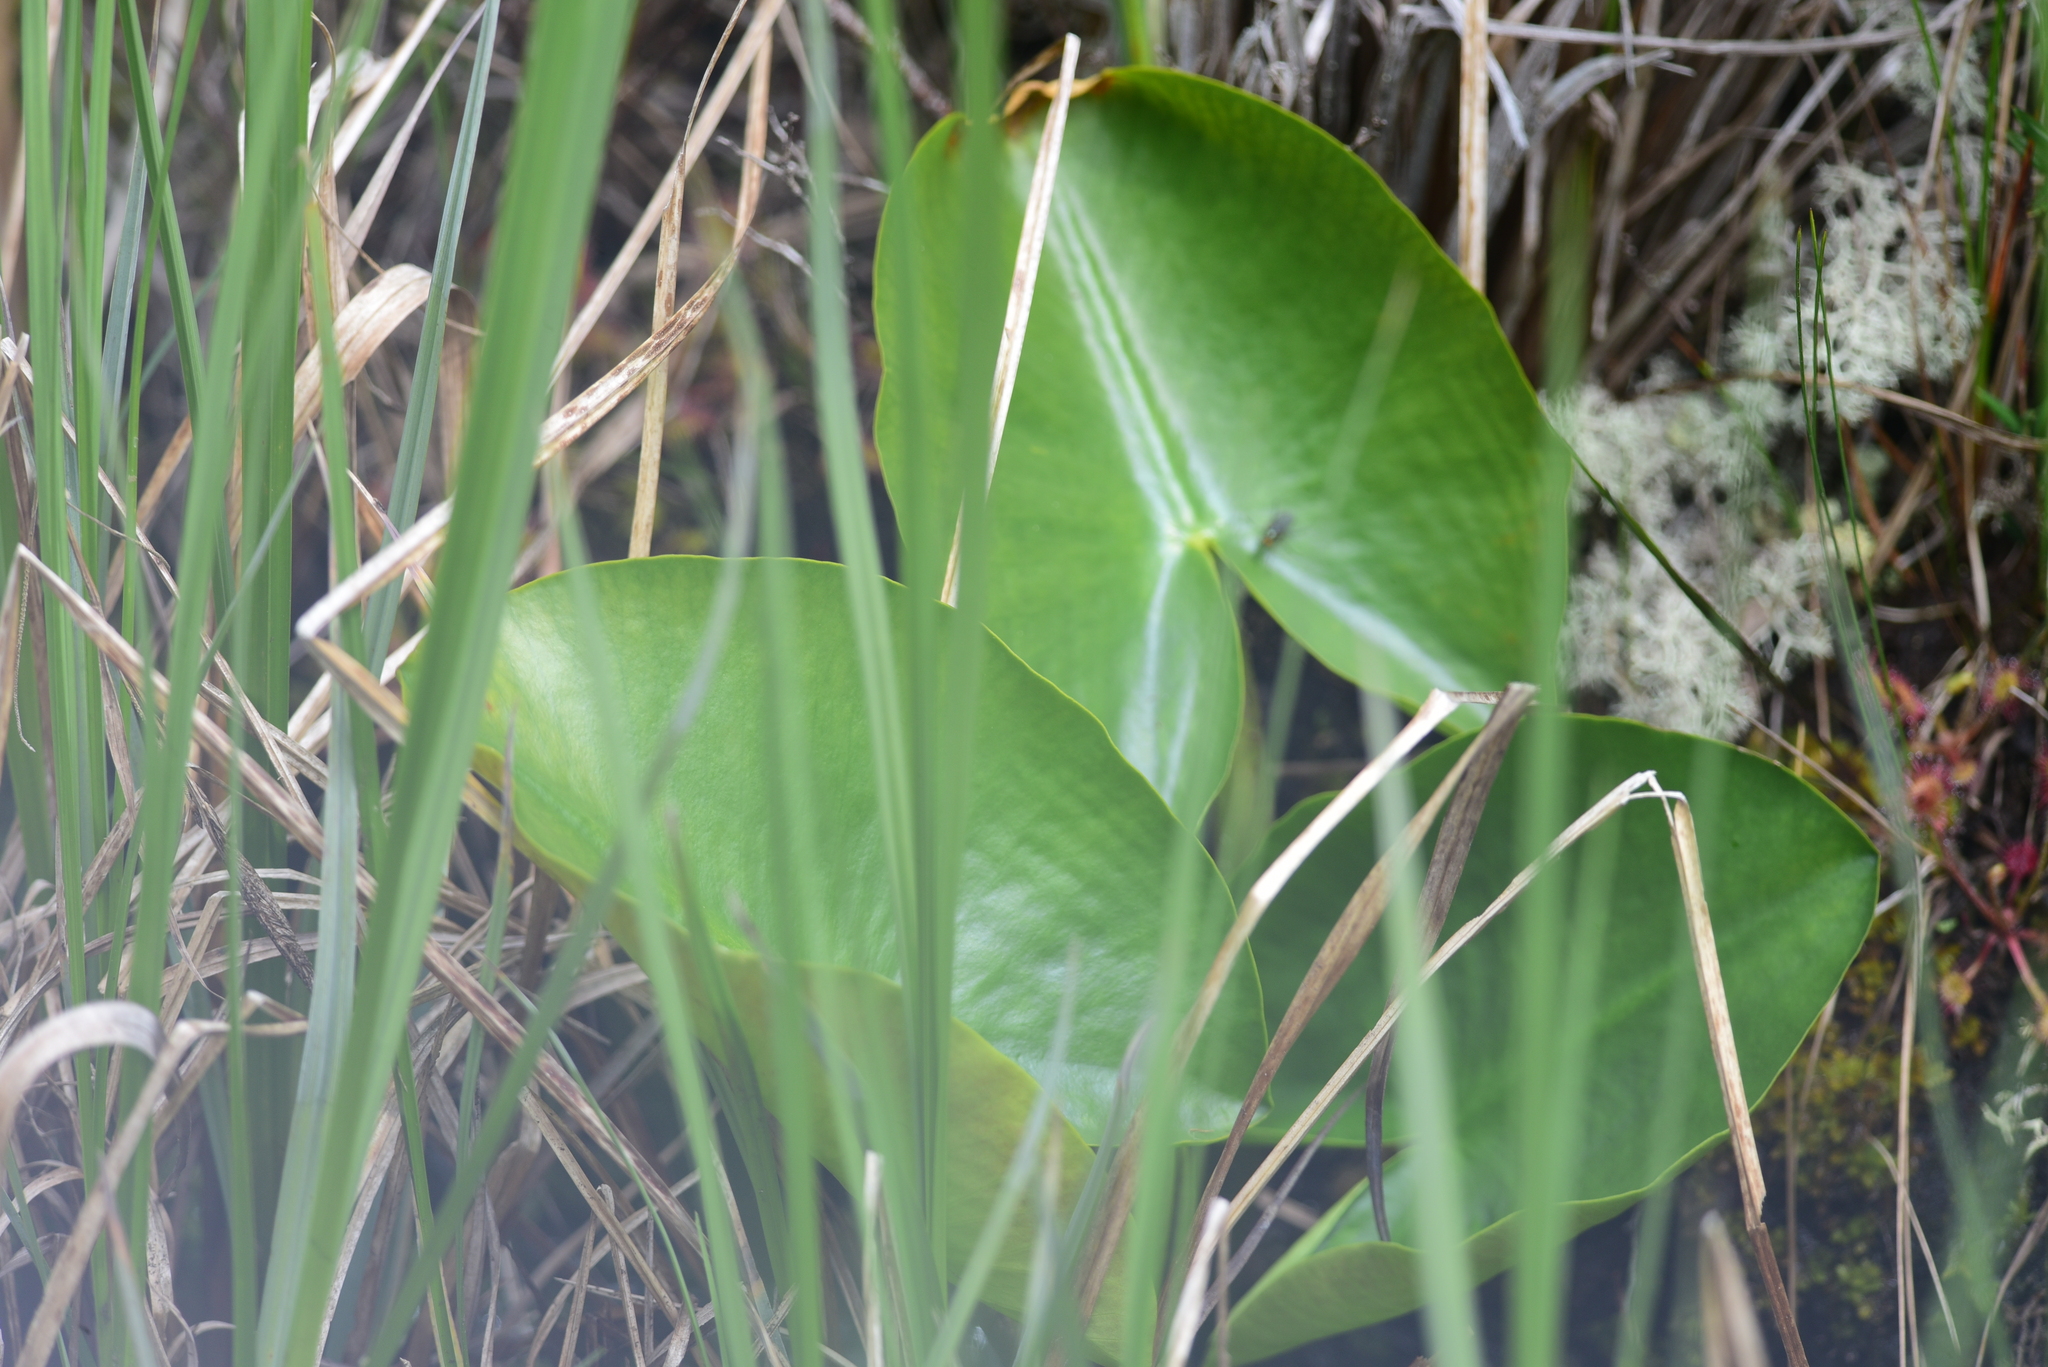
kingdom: Plantae
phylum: Tracheophyta
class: Magnoliopsida
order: Nymphaeales
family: Nymphaeaceae
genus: Nuphar
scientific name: Nuphar polysepala
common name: Rocky mountain cow-lily
